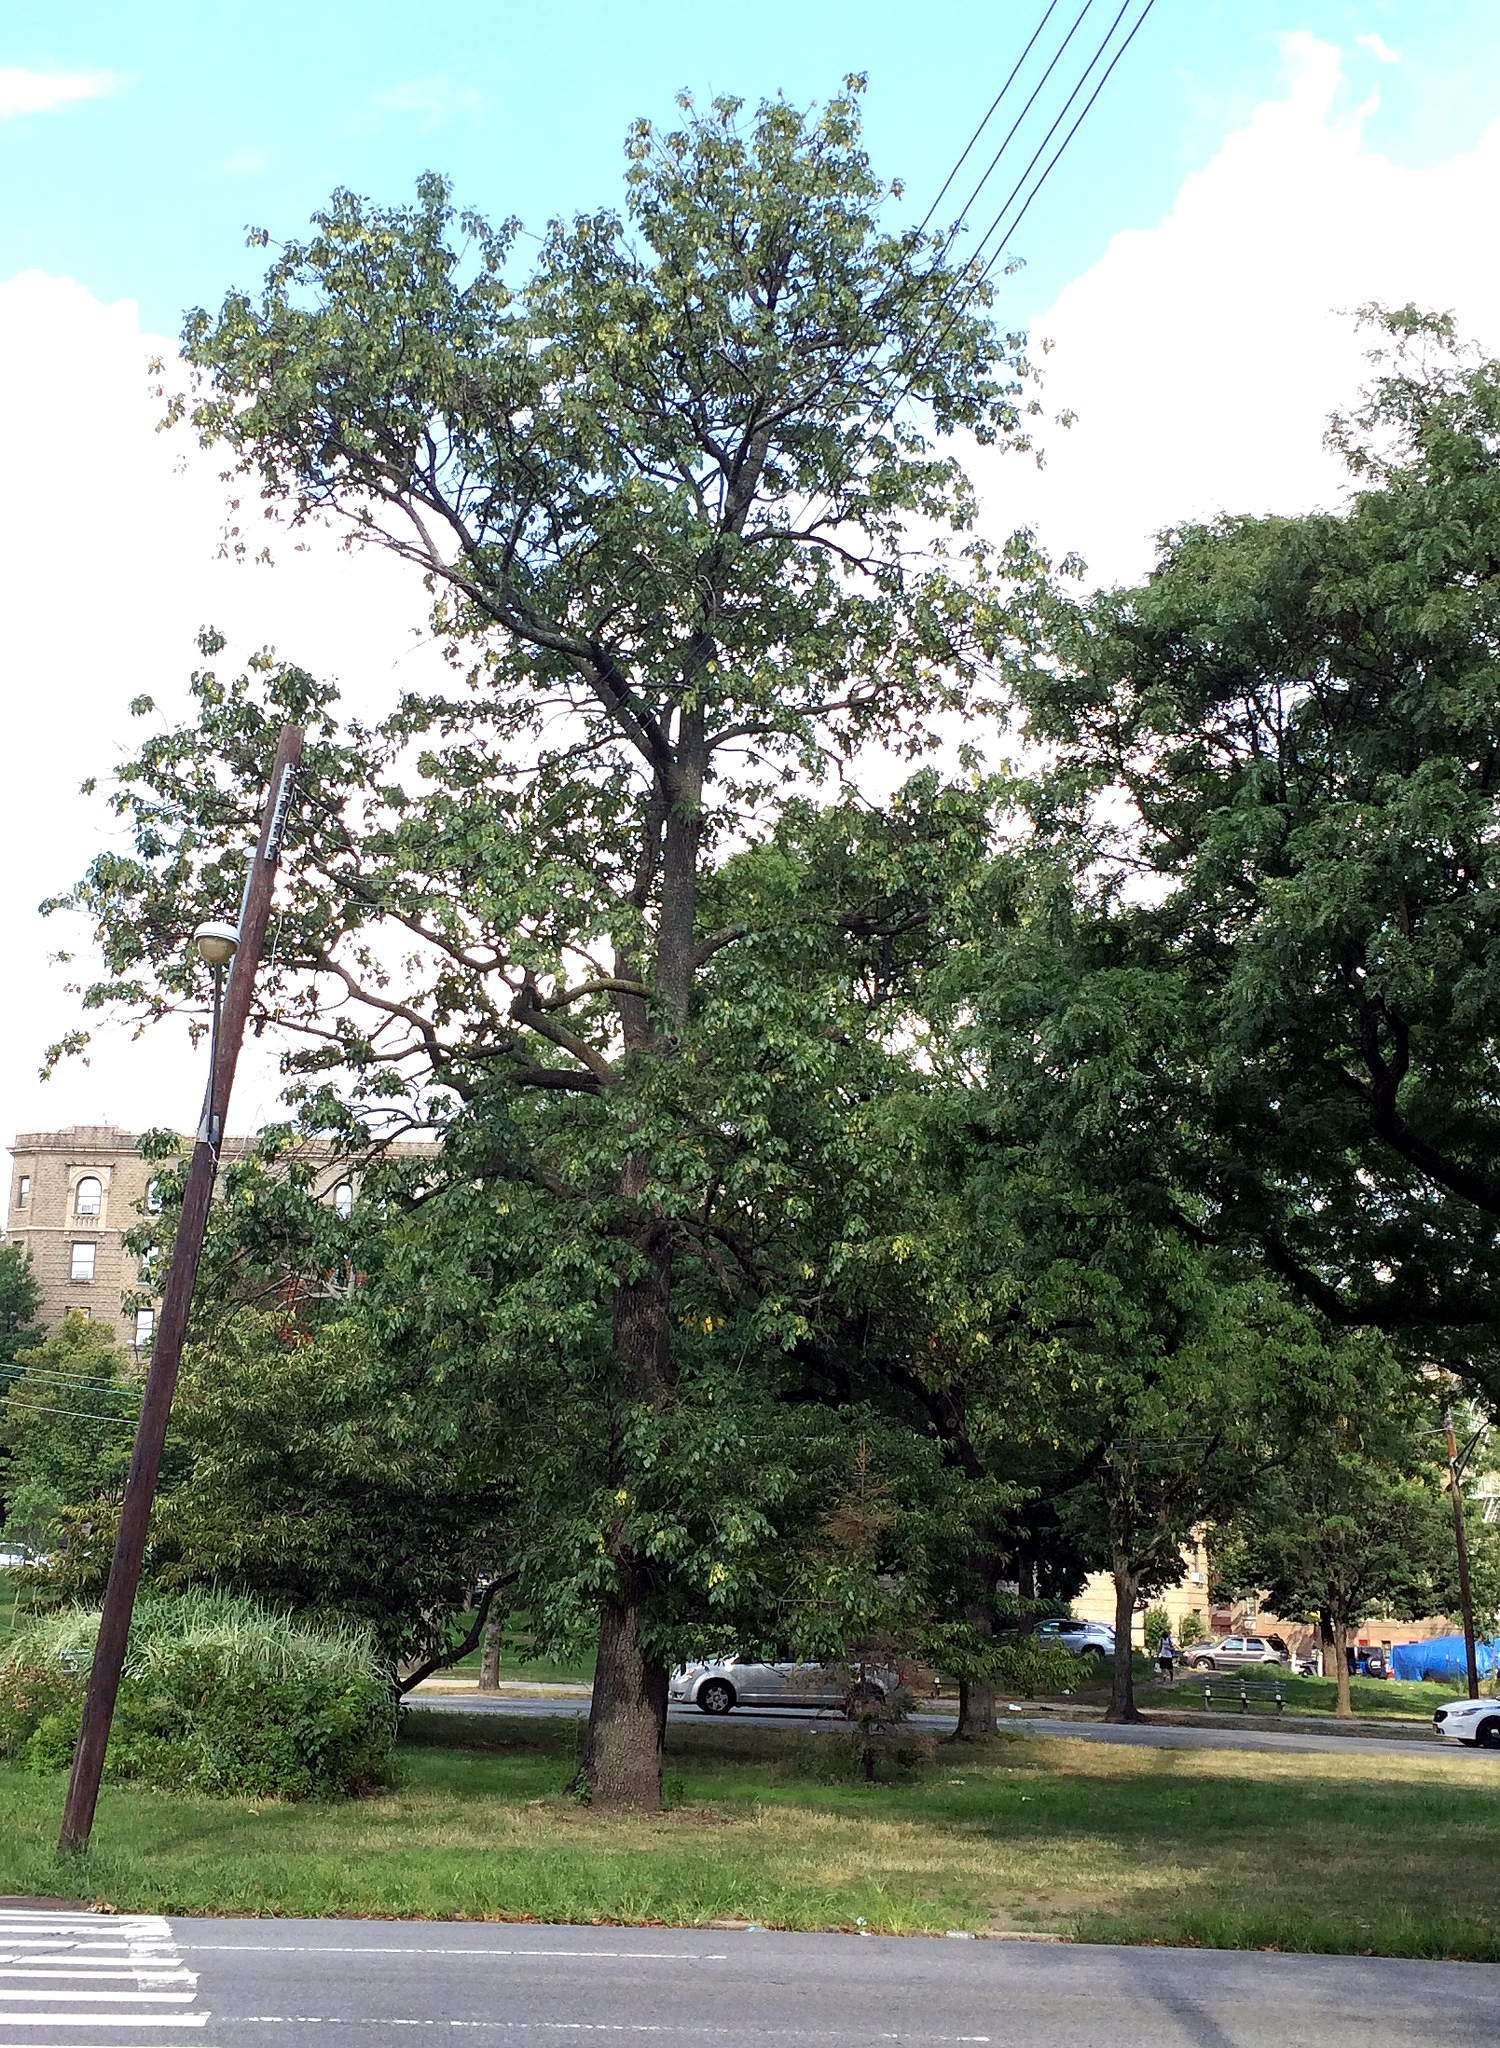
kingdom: Plantae
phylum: Tracheophyta
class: Magnoliopsida
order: Lamiales
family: Oleaceae
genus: Fraxinus
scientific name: Fraxinus profunda
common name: Pumpkin ash
